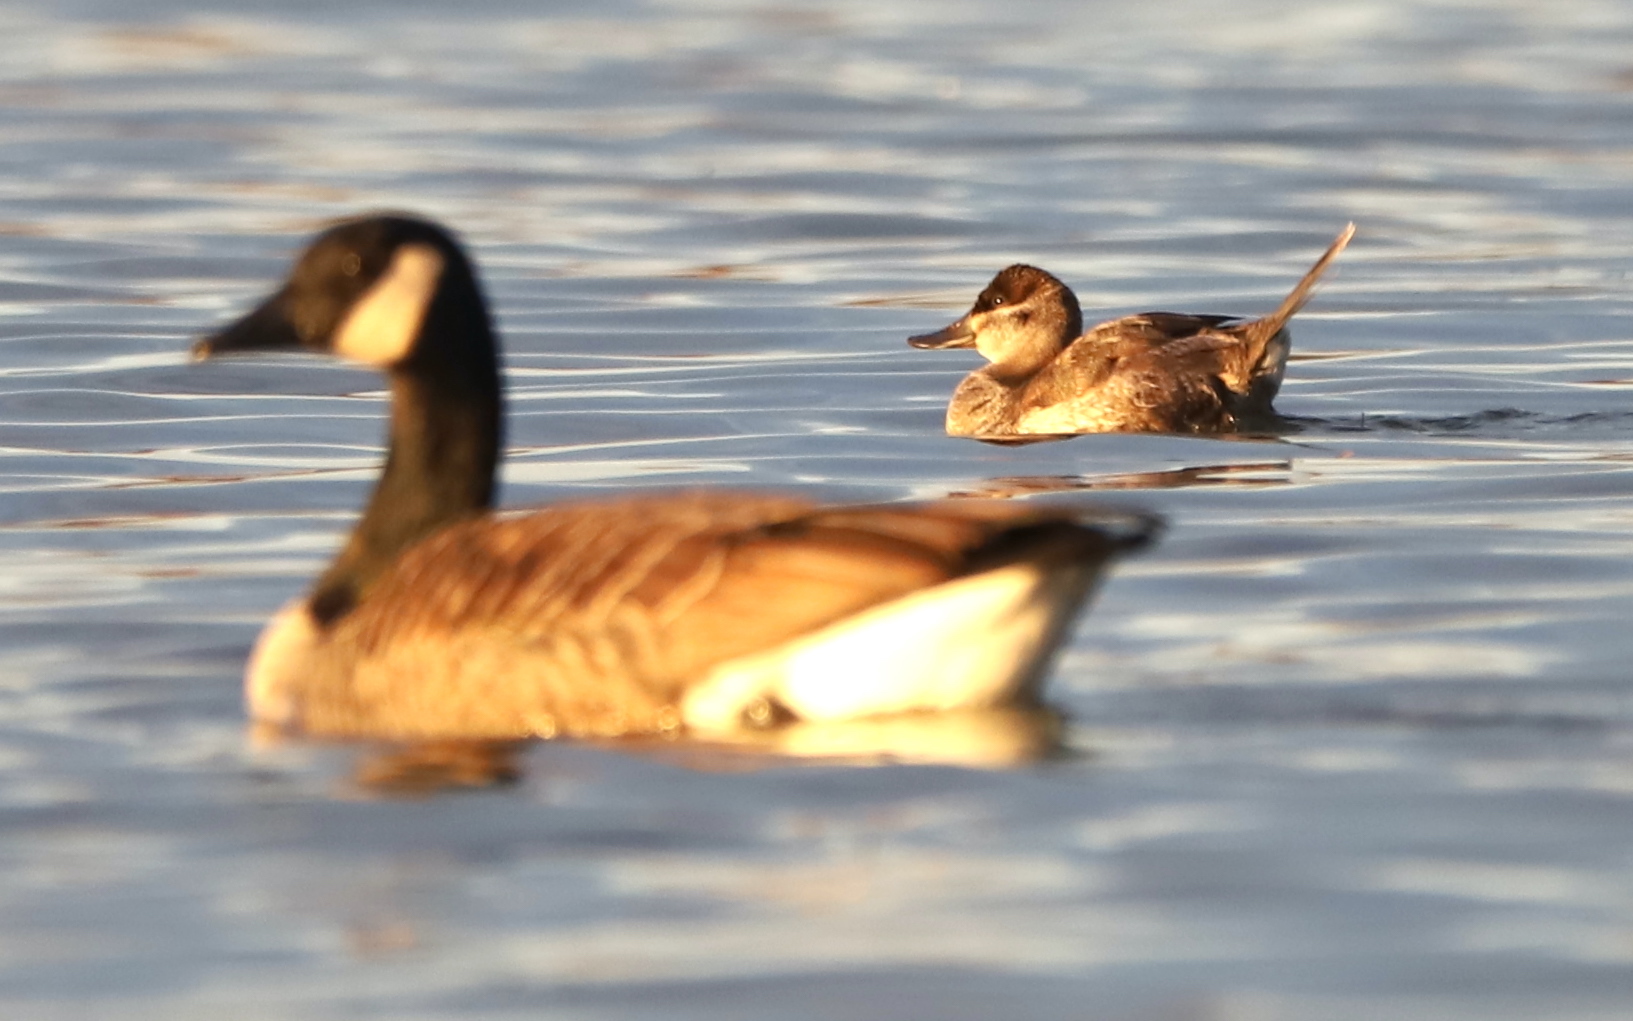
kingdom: Animalia
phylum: Chordata
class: Aves
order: Anseriformes
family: Anatidae
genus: Oxyura
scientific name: Oxyura jamaicensis
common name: Ruddy duck
